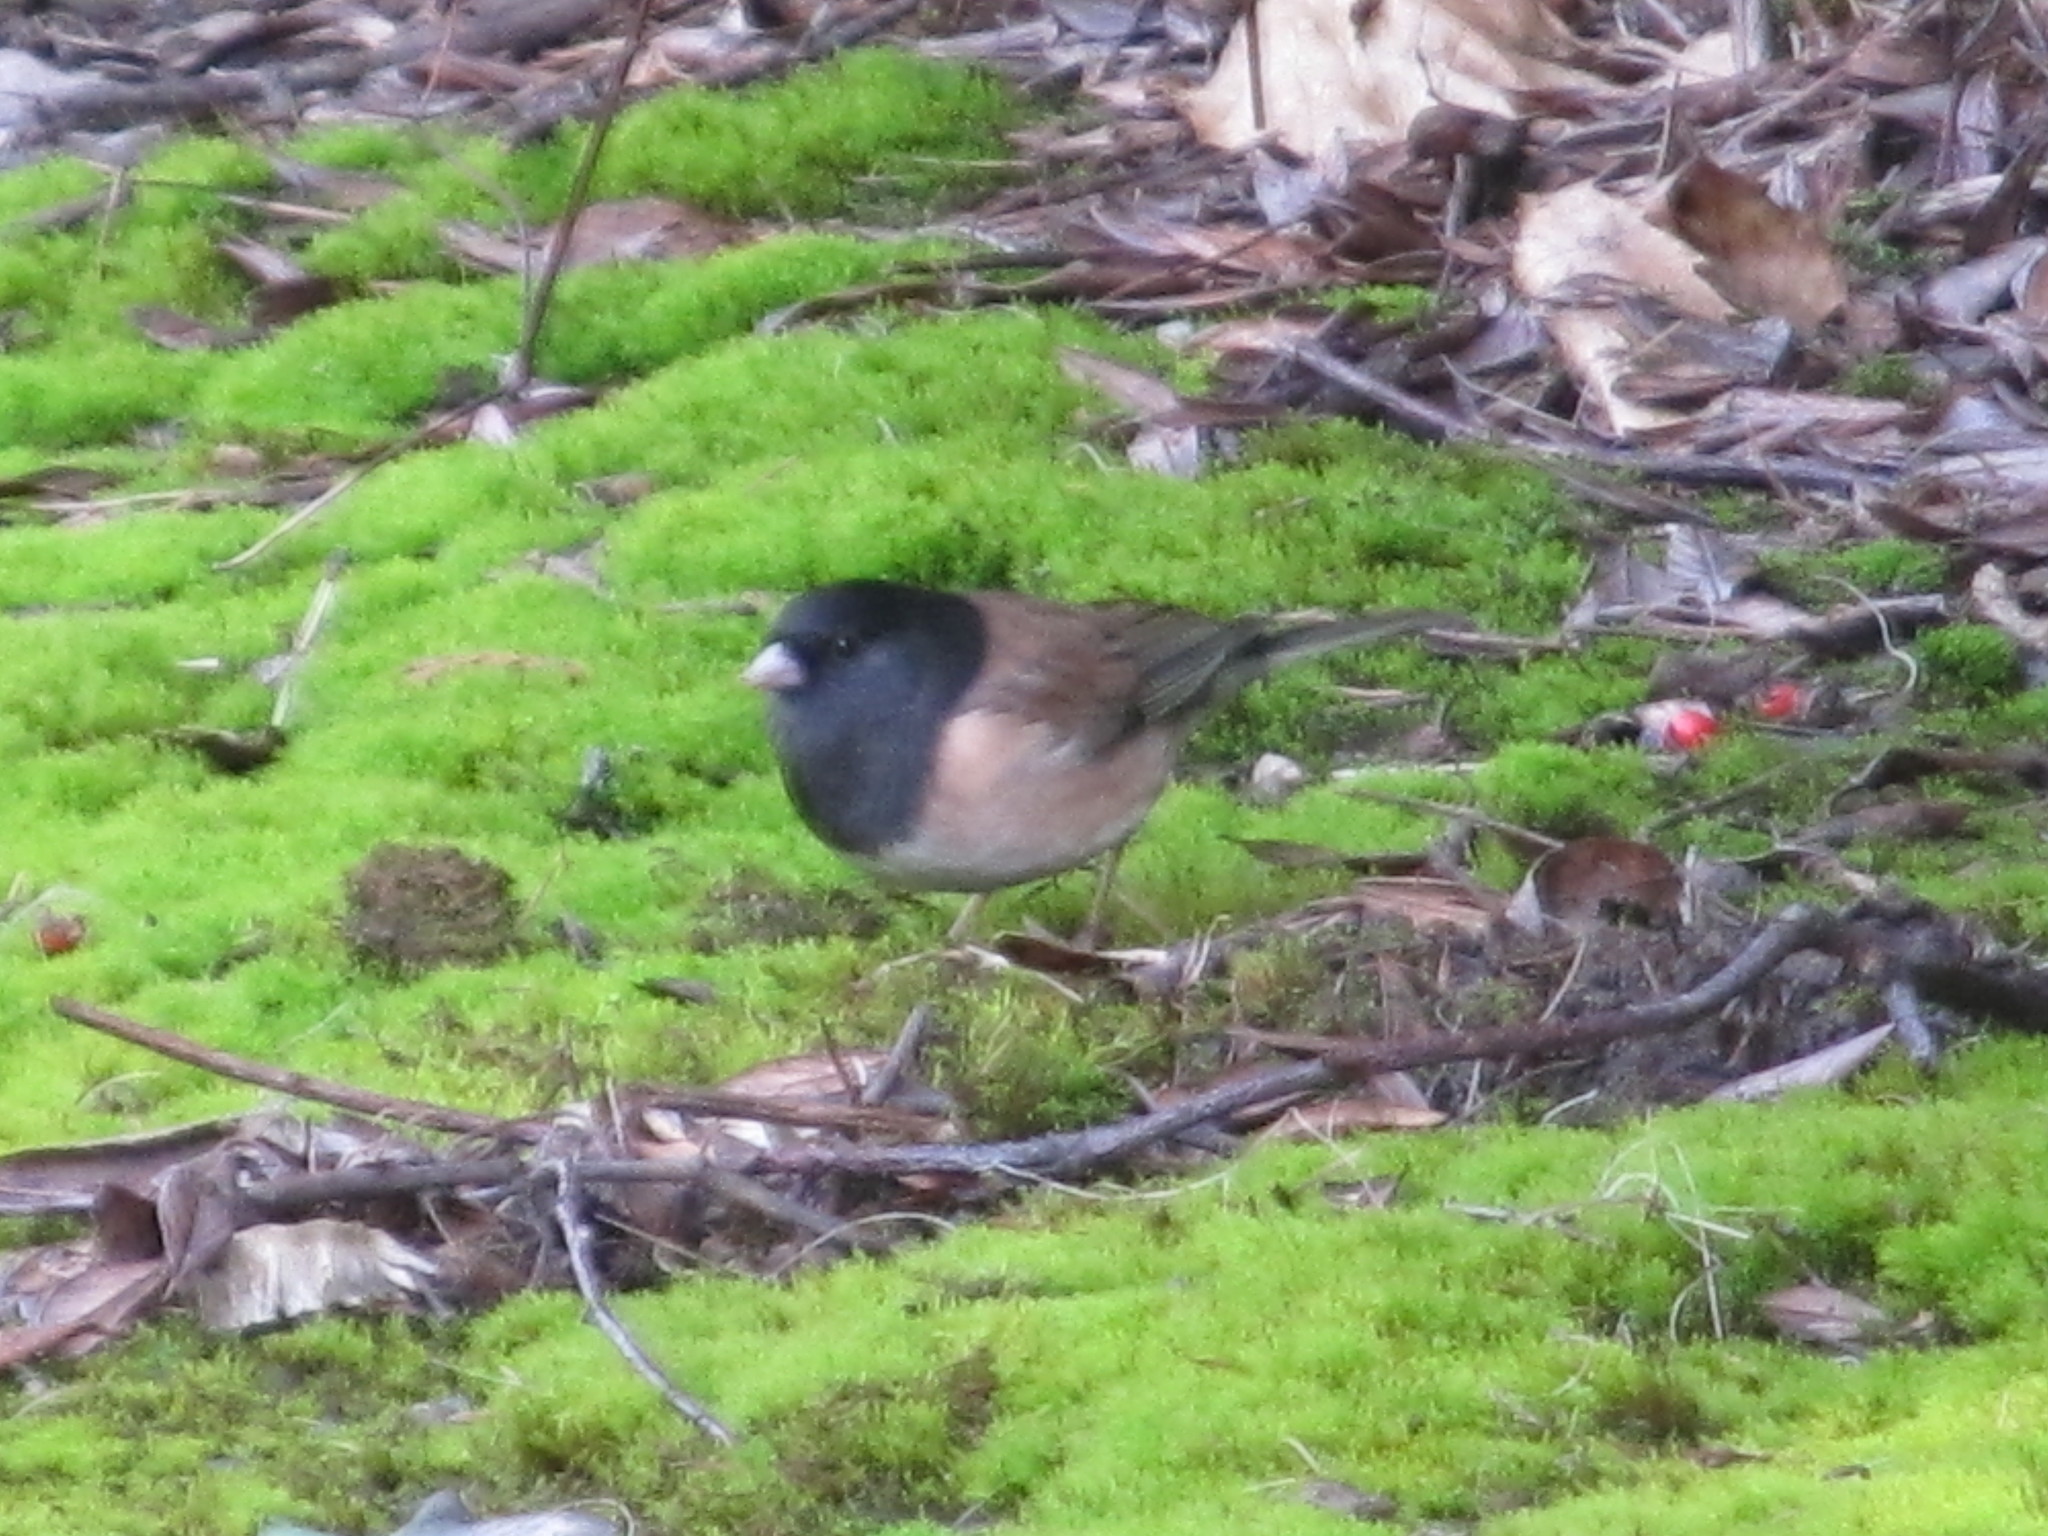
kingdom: Animalia
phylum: Chordata
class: Aves
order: Passeriformes
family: Passerellidae
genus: Junco
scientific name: Junco hyemalis
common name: Dark-eyed junco
